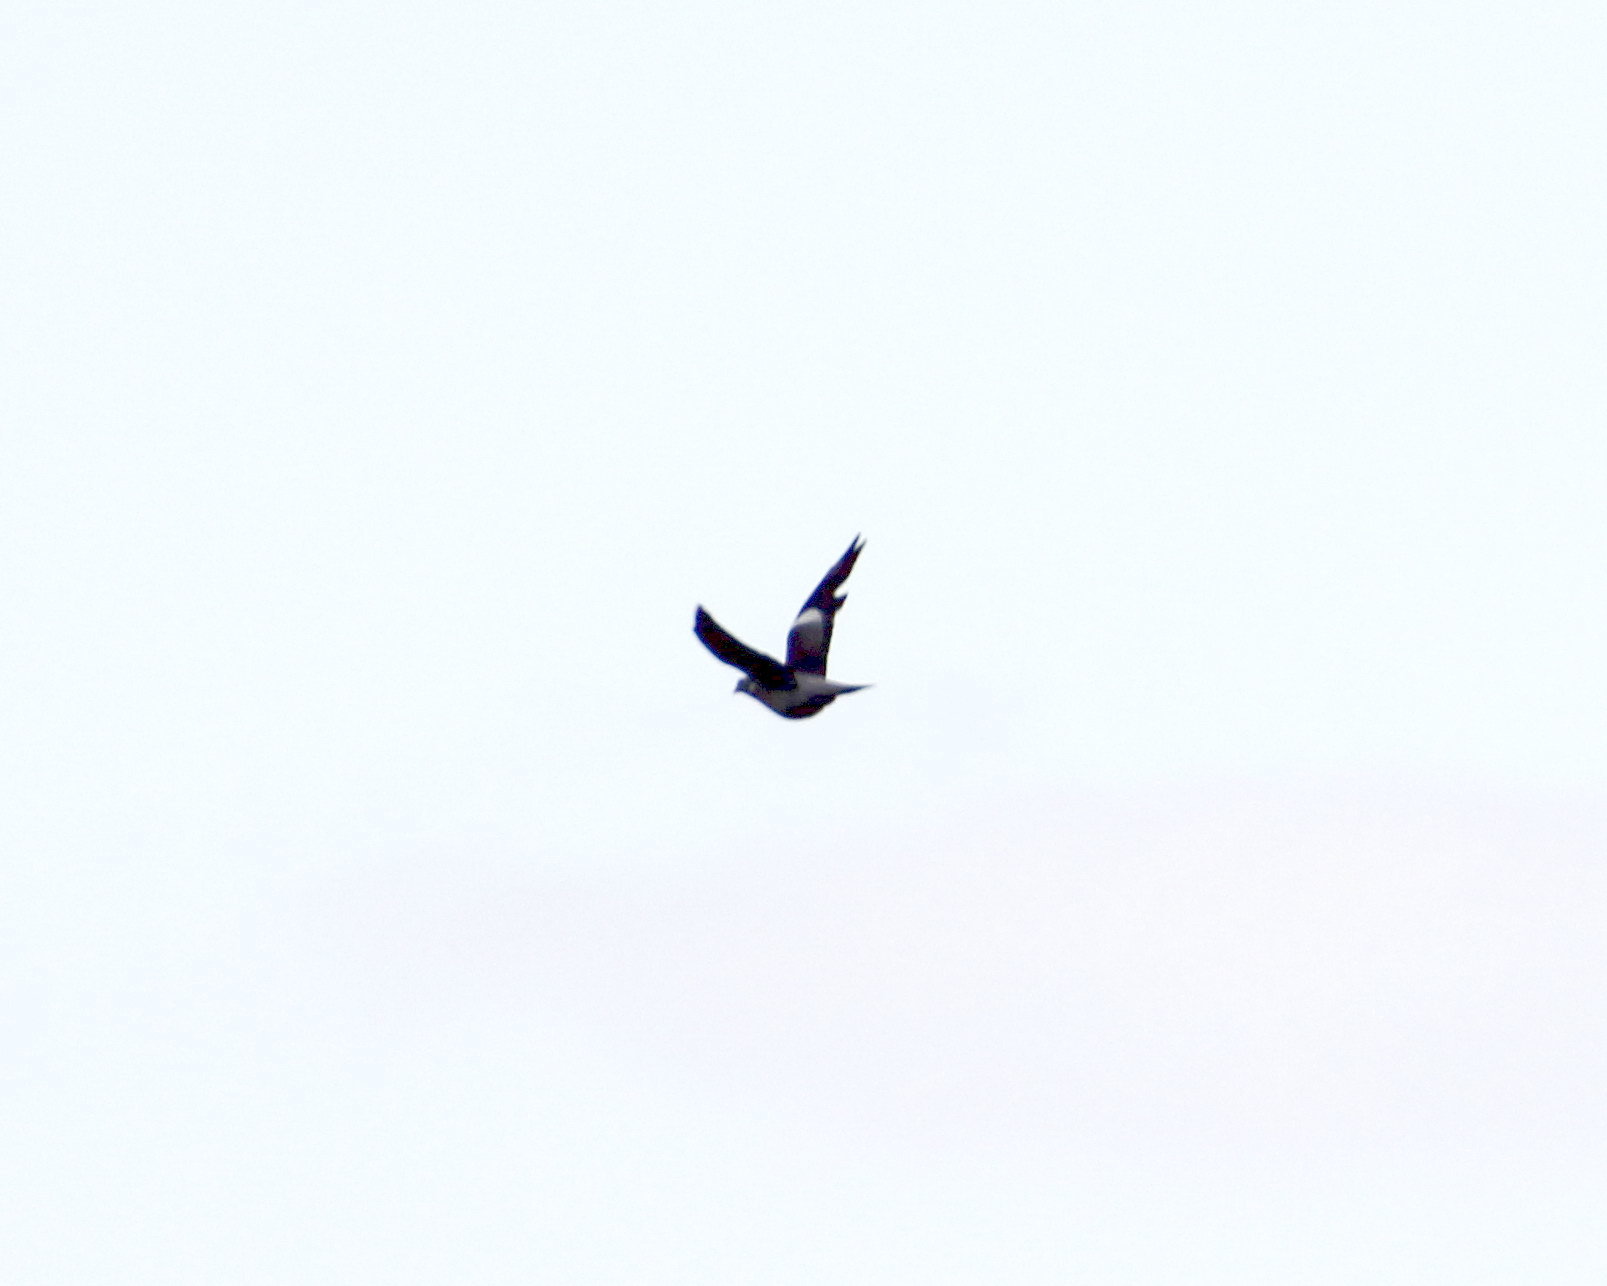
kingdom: Animalia
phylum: Chordata
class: Aves
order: Columbiformes
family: Columbidae
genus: Columba
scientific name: Columba palumbus
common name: Common wood pigeon
